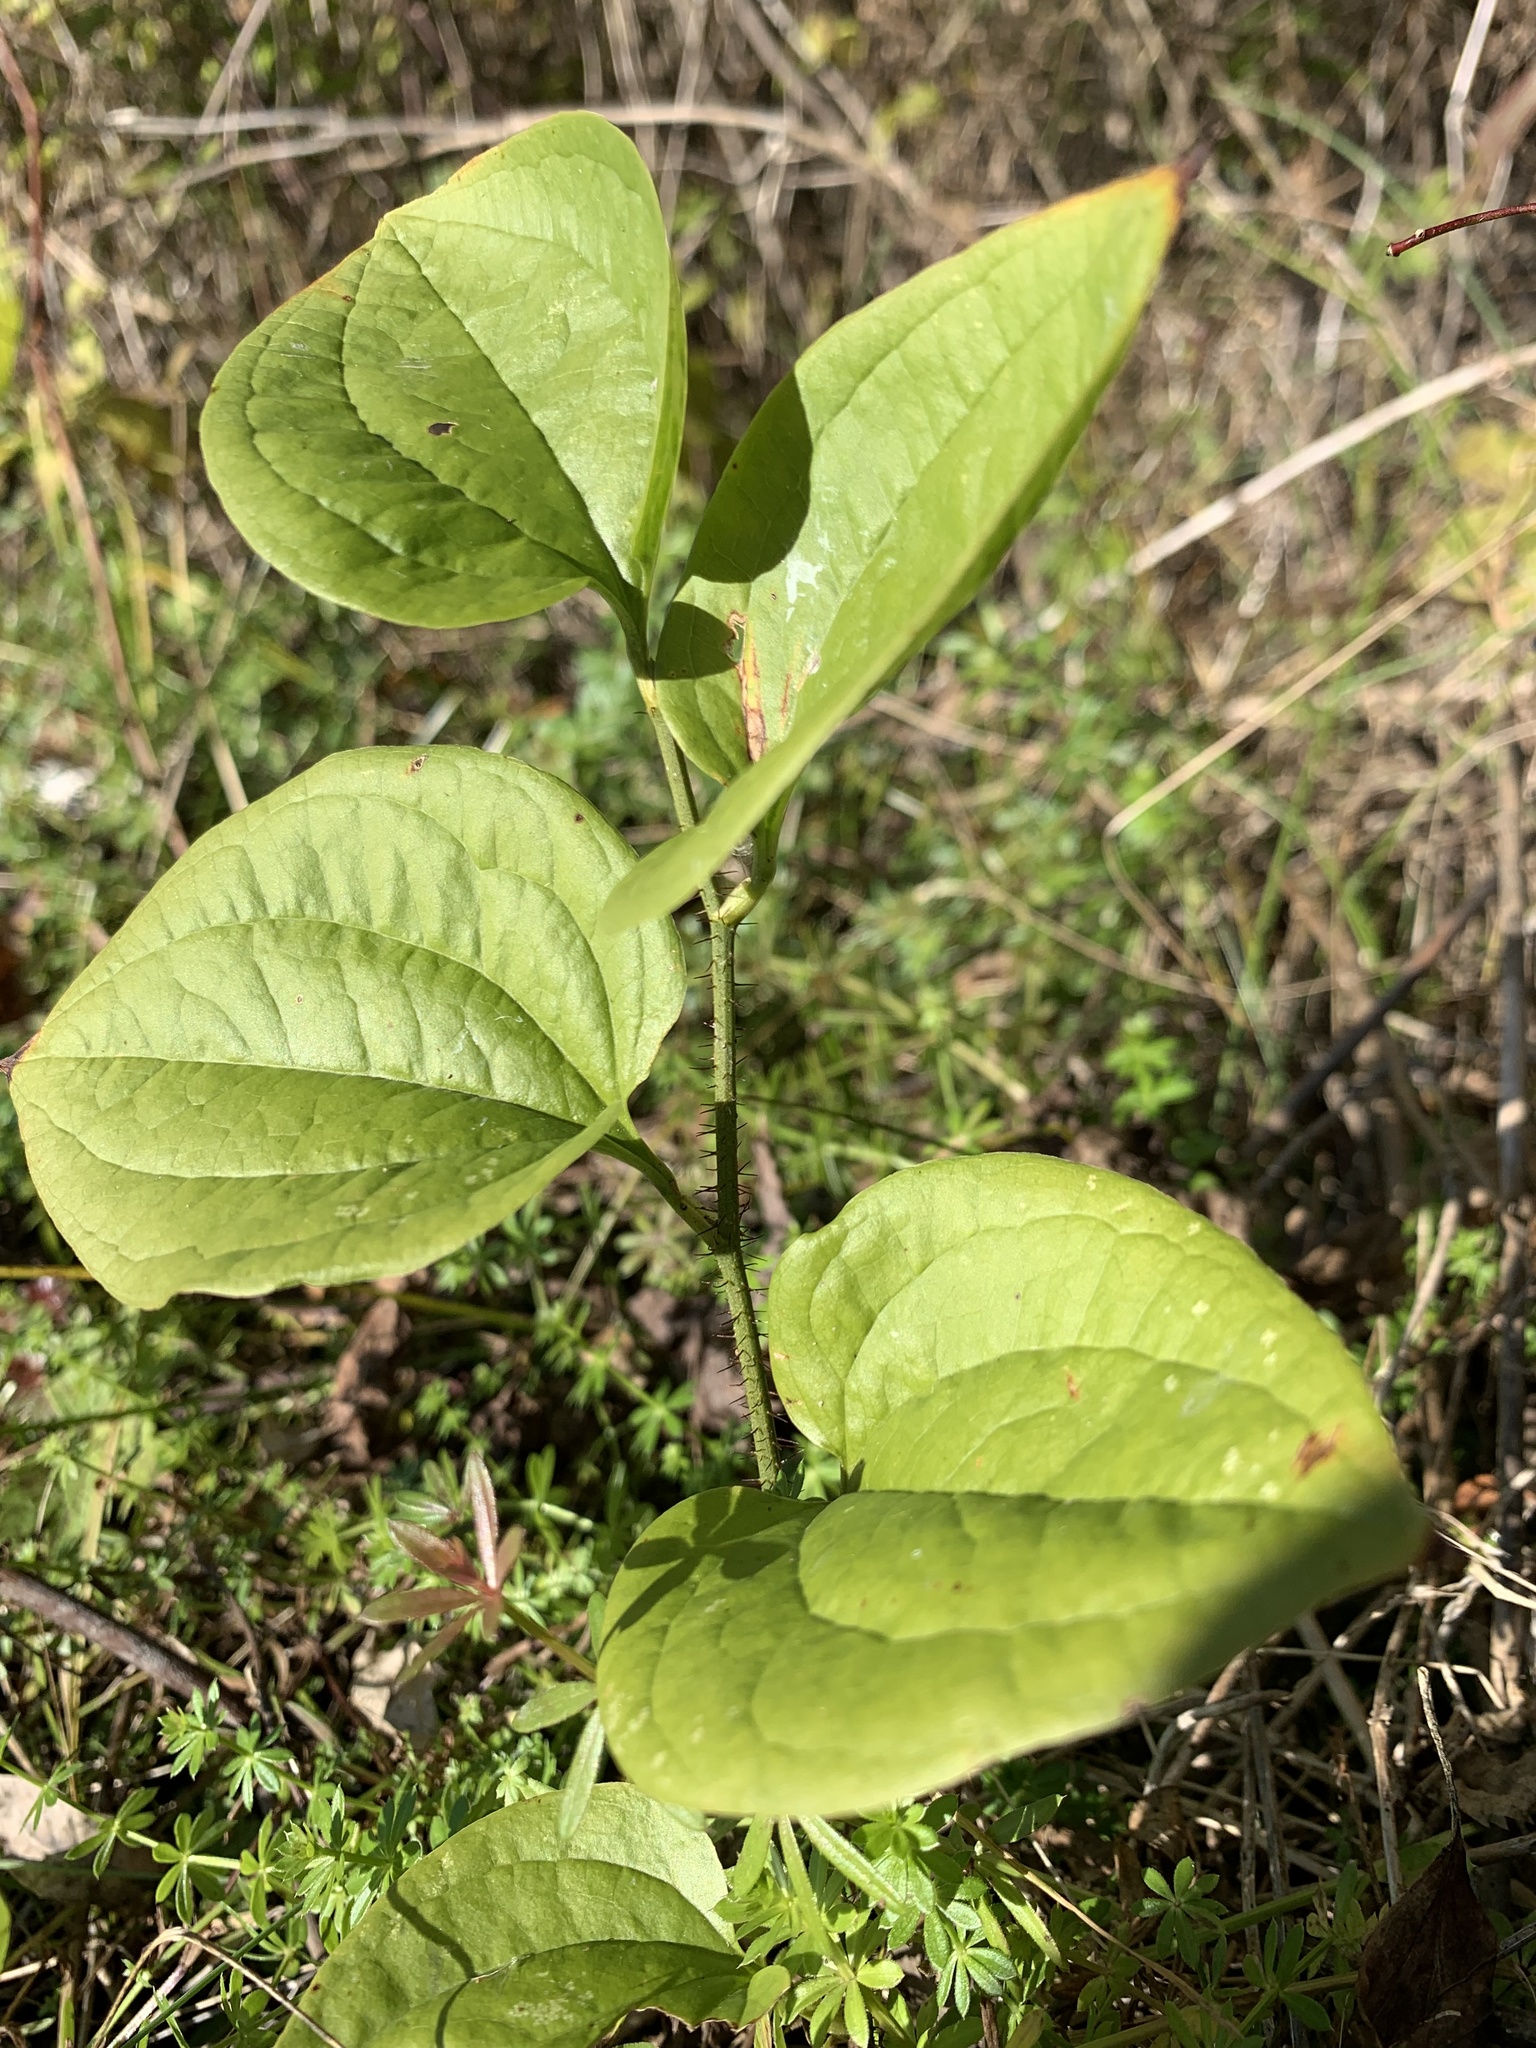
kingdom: Plantae
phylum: Tracheophyta
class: Liliopsida
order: Liliales
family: Smilacaceae
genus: Smilax
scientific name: Smilax tamnoides
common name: Hellfetter
